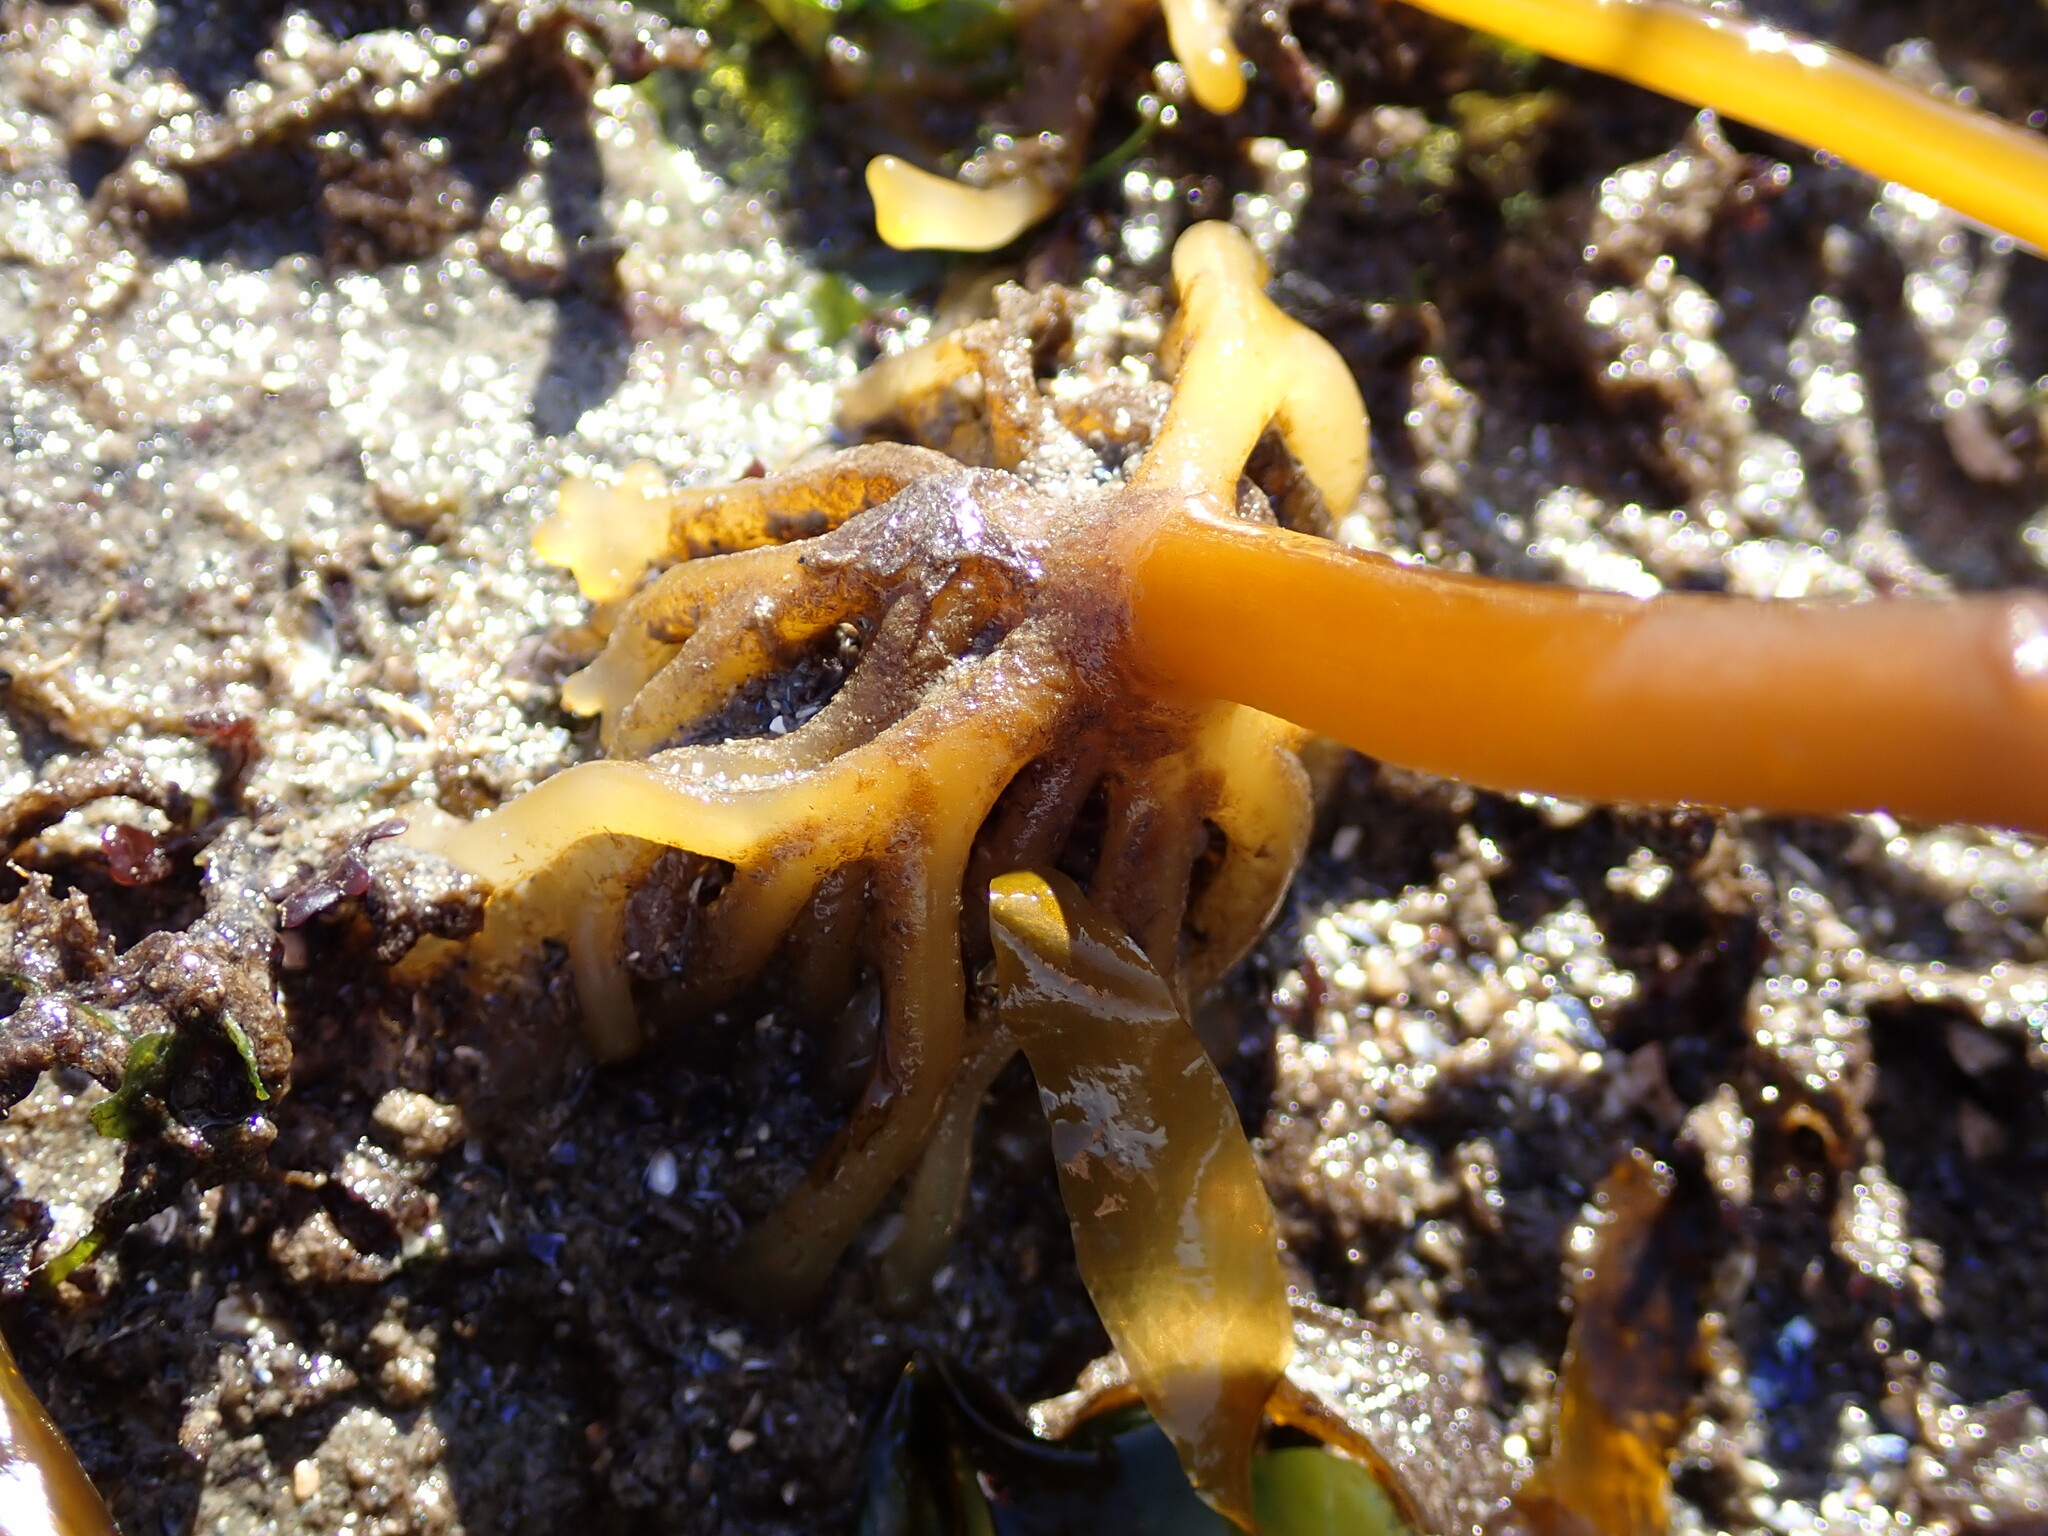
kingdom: Chromista
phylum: Ochrophyta
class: Phaeophyceae
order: Laminariales
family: Alariaceae
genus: Alaria
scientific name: Alaria marginata
